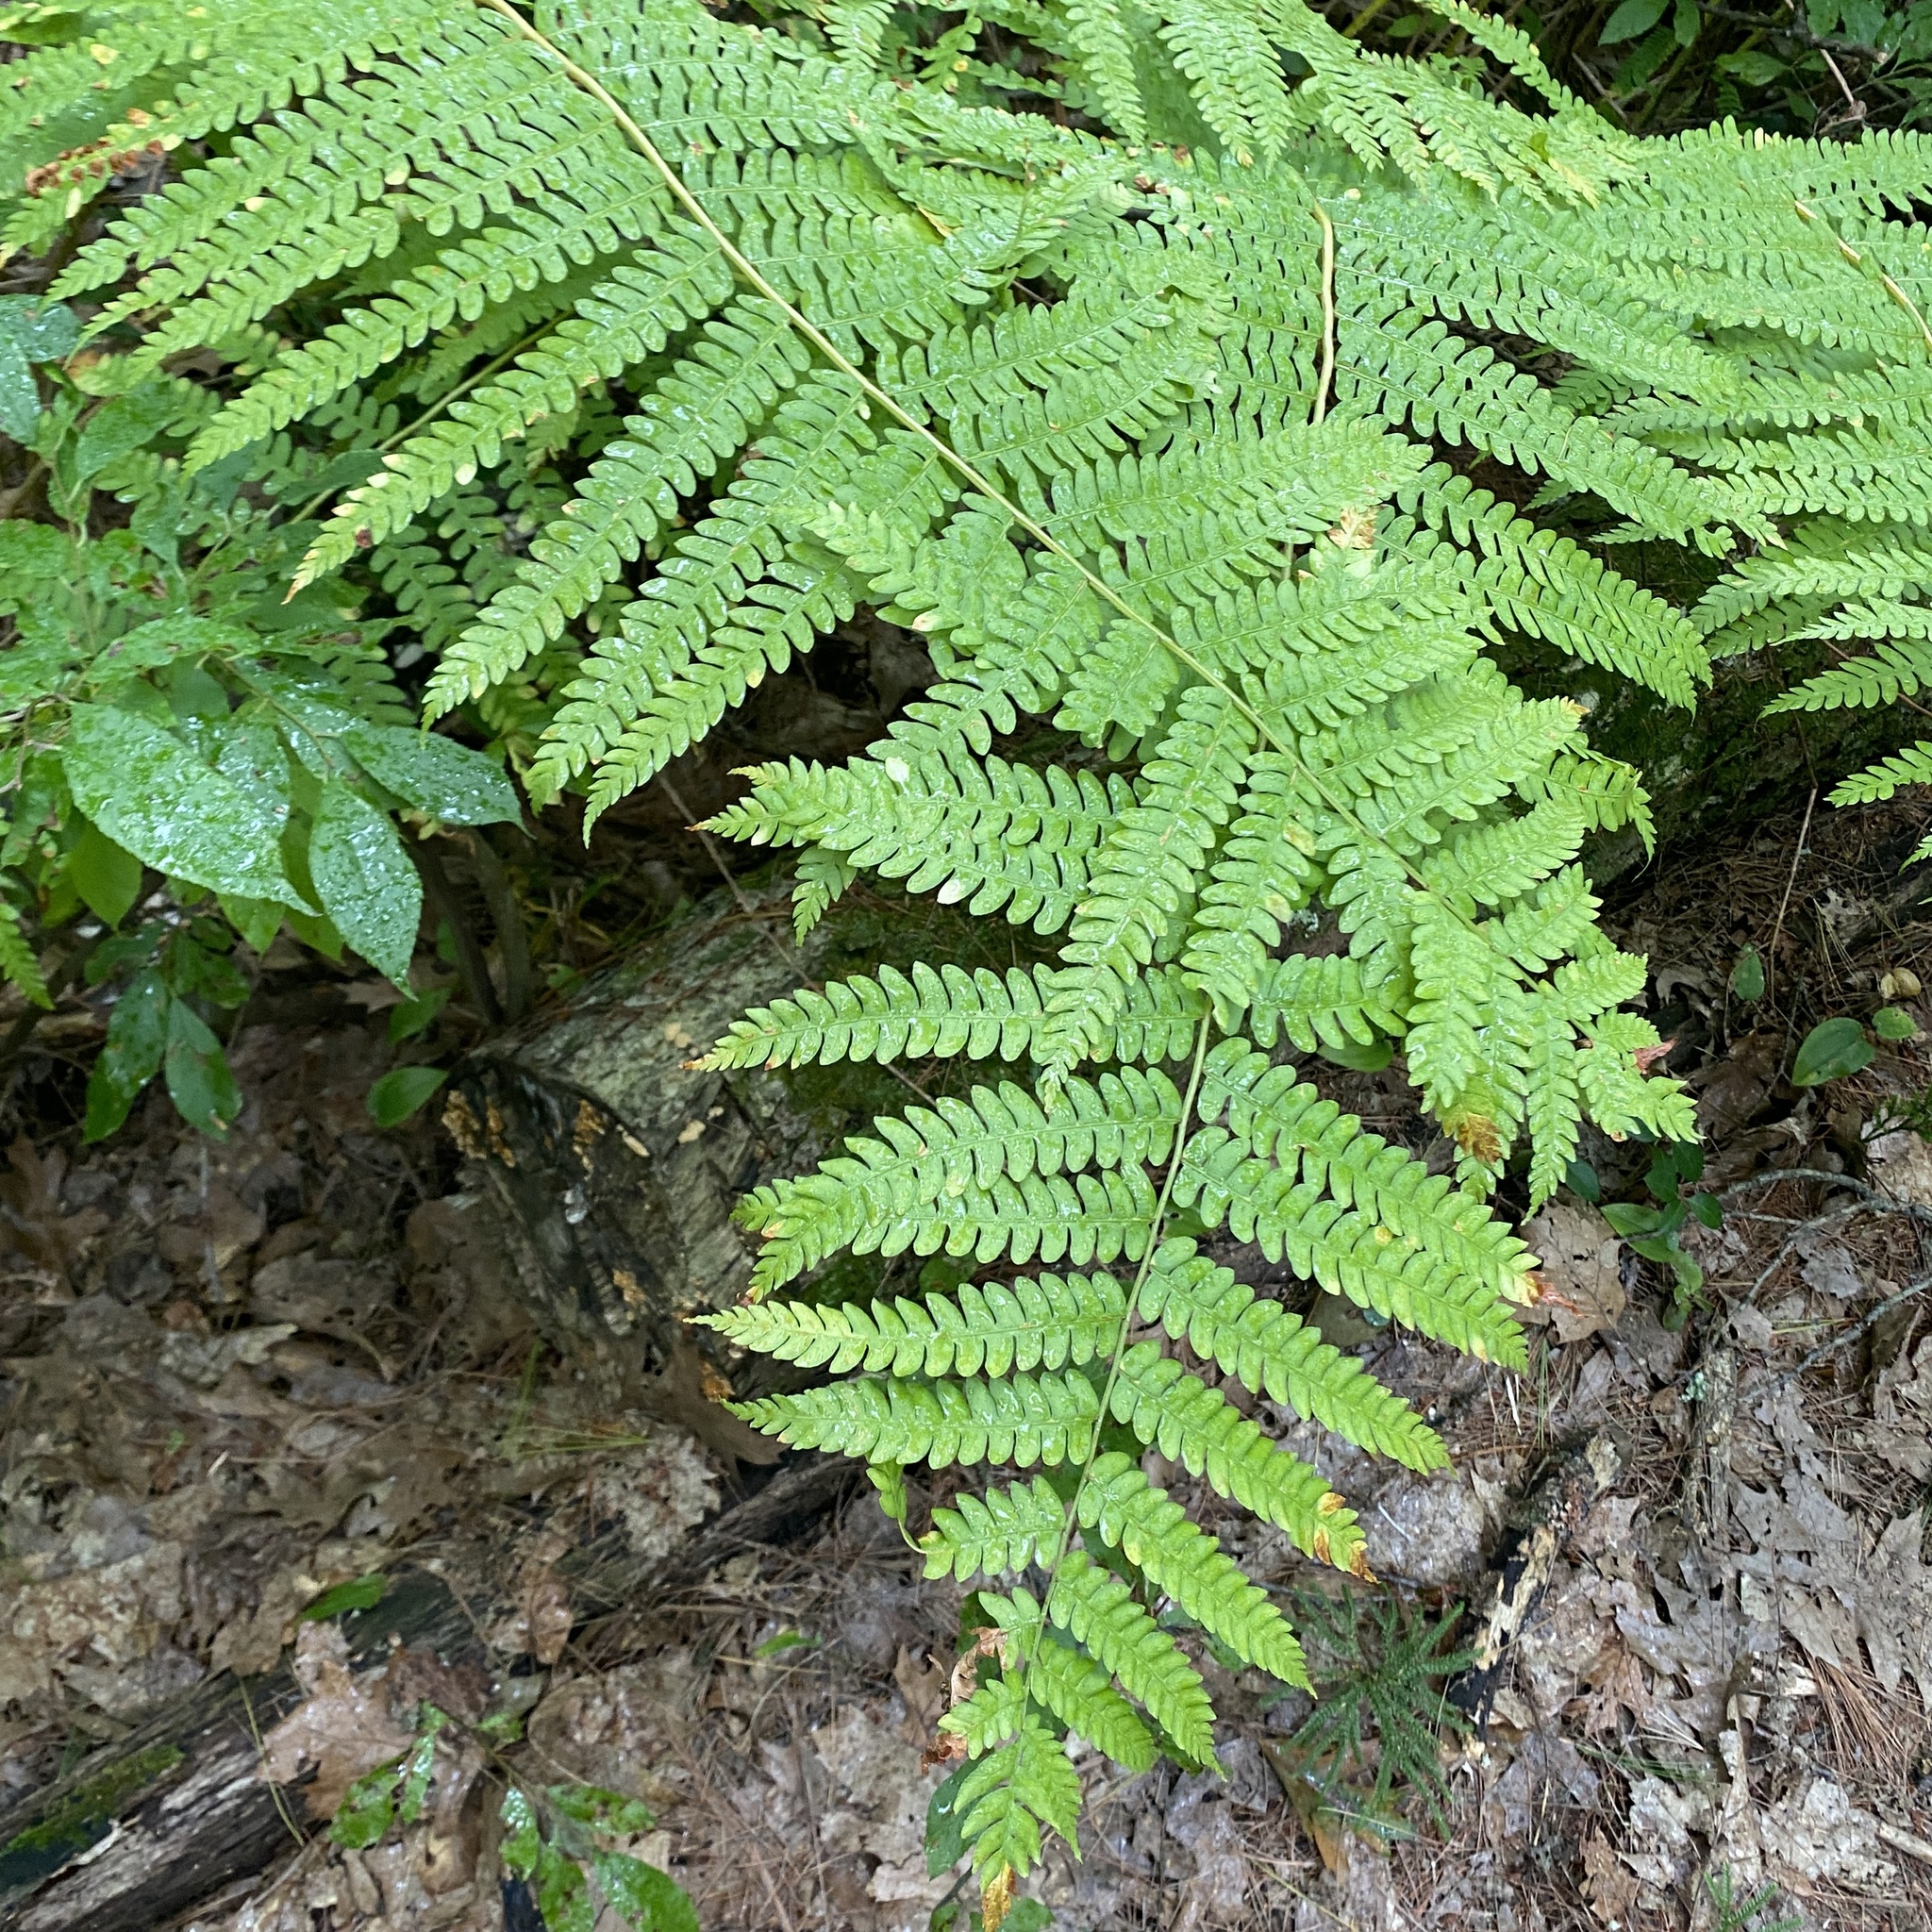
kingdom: Plantae
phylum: Tracheophyta
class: Polypodiopsida
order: Osmundales
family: Osmundaceae
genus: Osmundastrum
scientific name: Osmundastrum cinnamomeum
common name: Cinnamon fern
